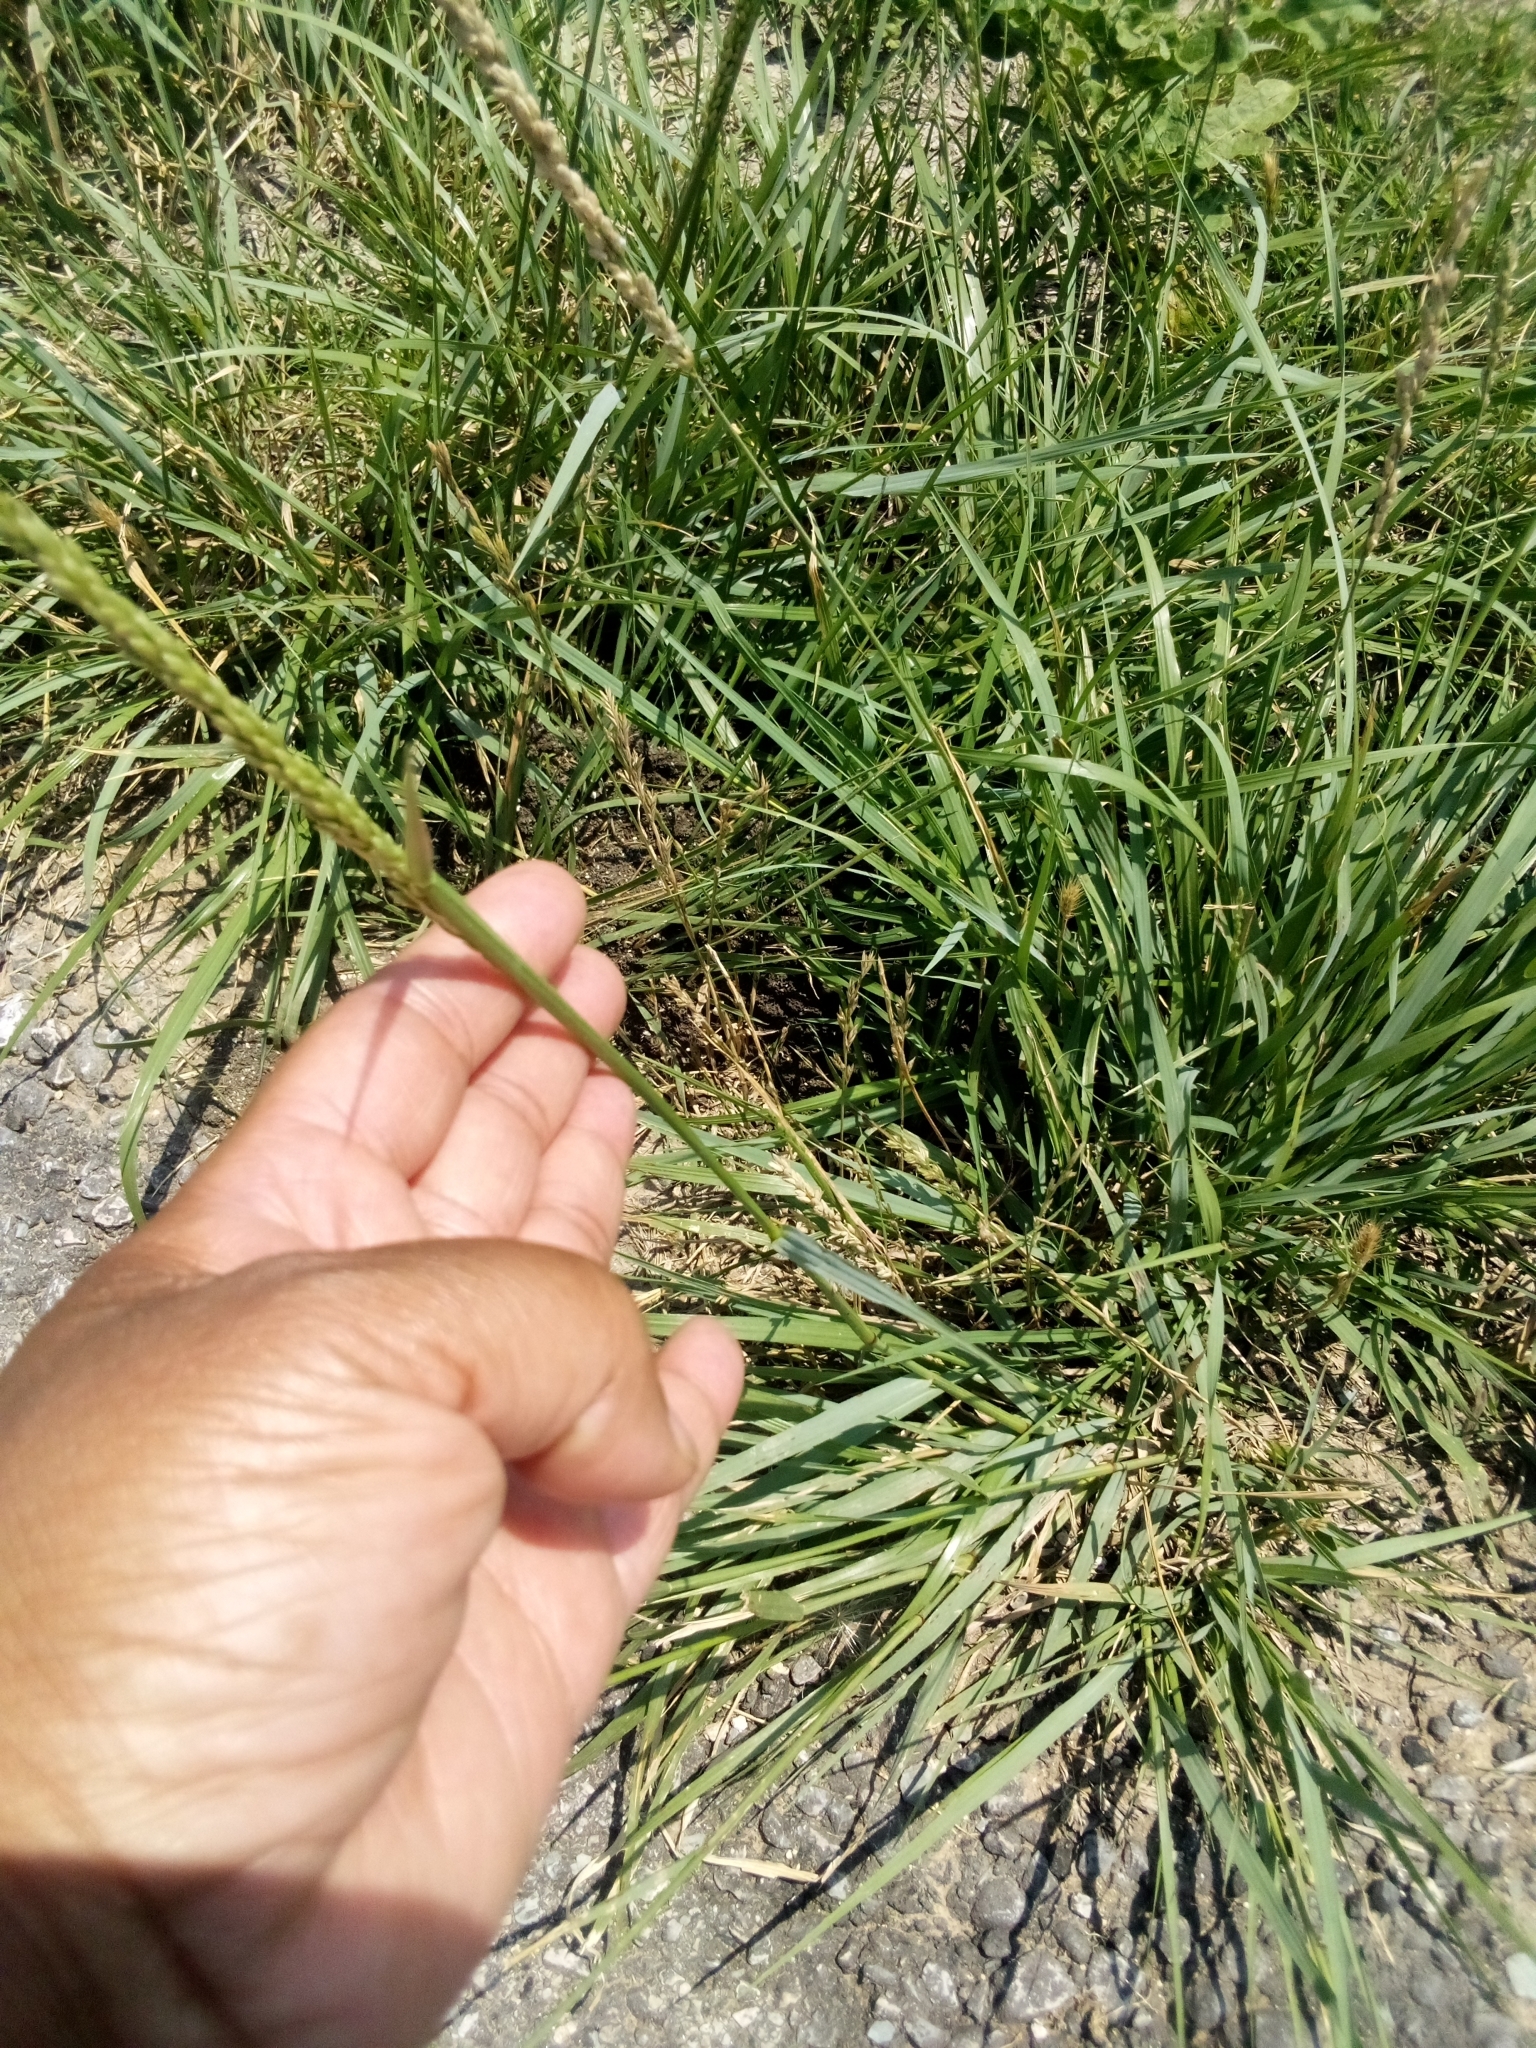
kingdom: Plantae
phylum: Tracheophyta
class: Liliopsida
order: Poales
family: Poaceae
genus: Tridens
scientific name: Tridens albescens
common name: White tridens
